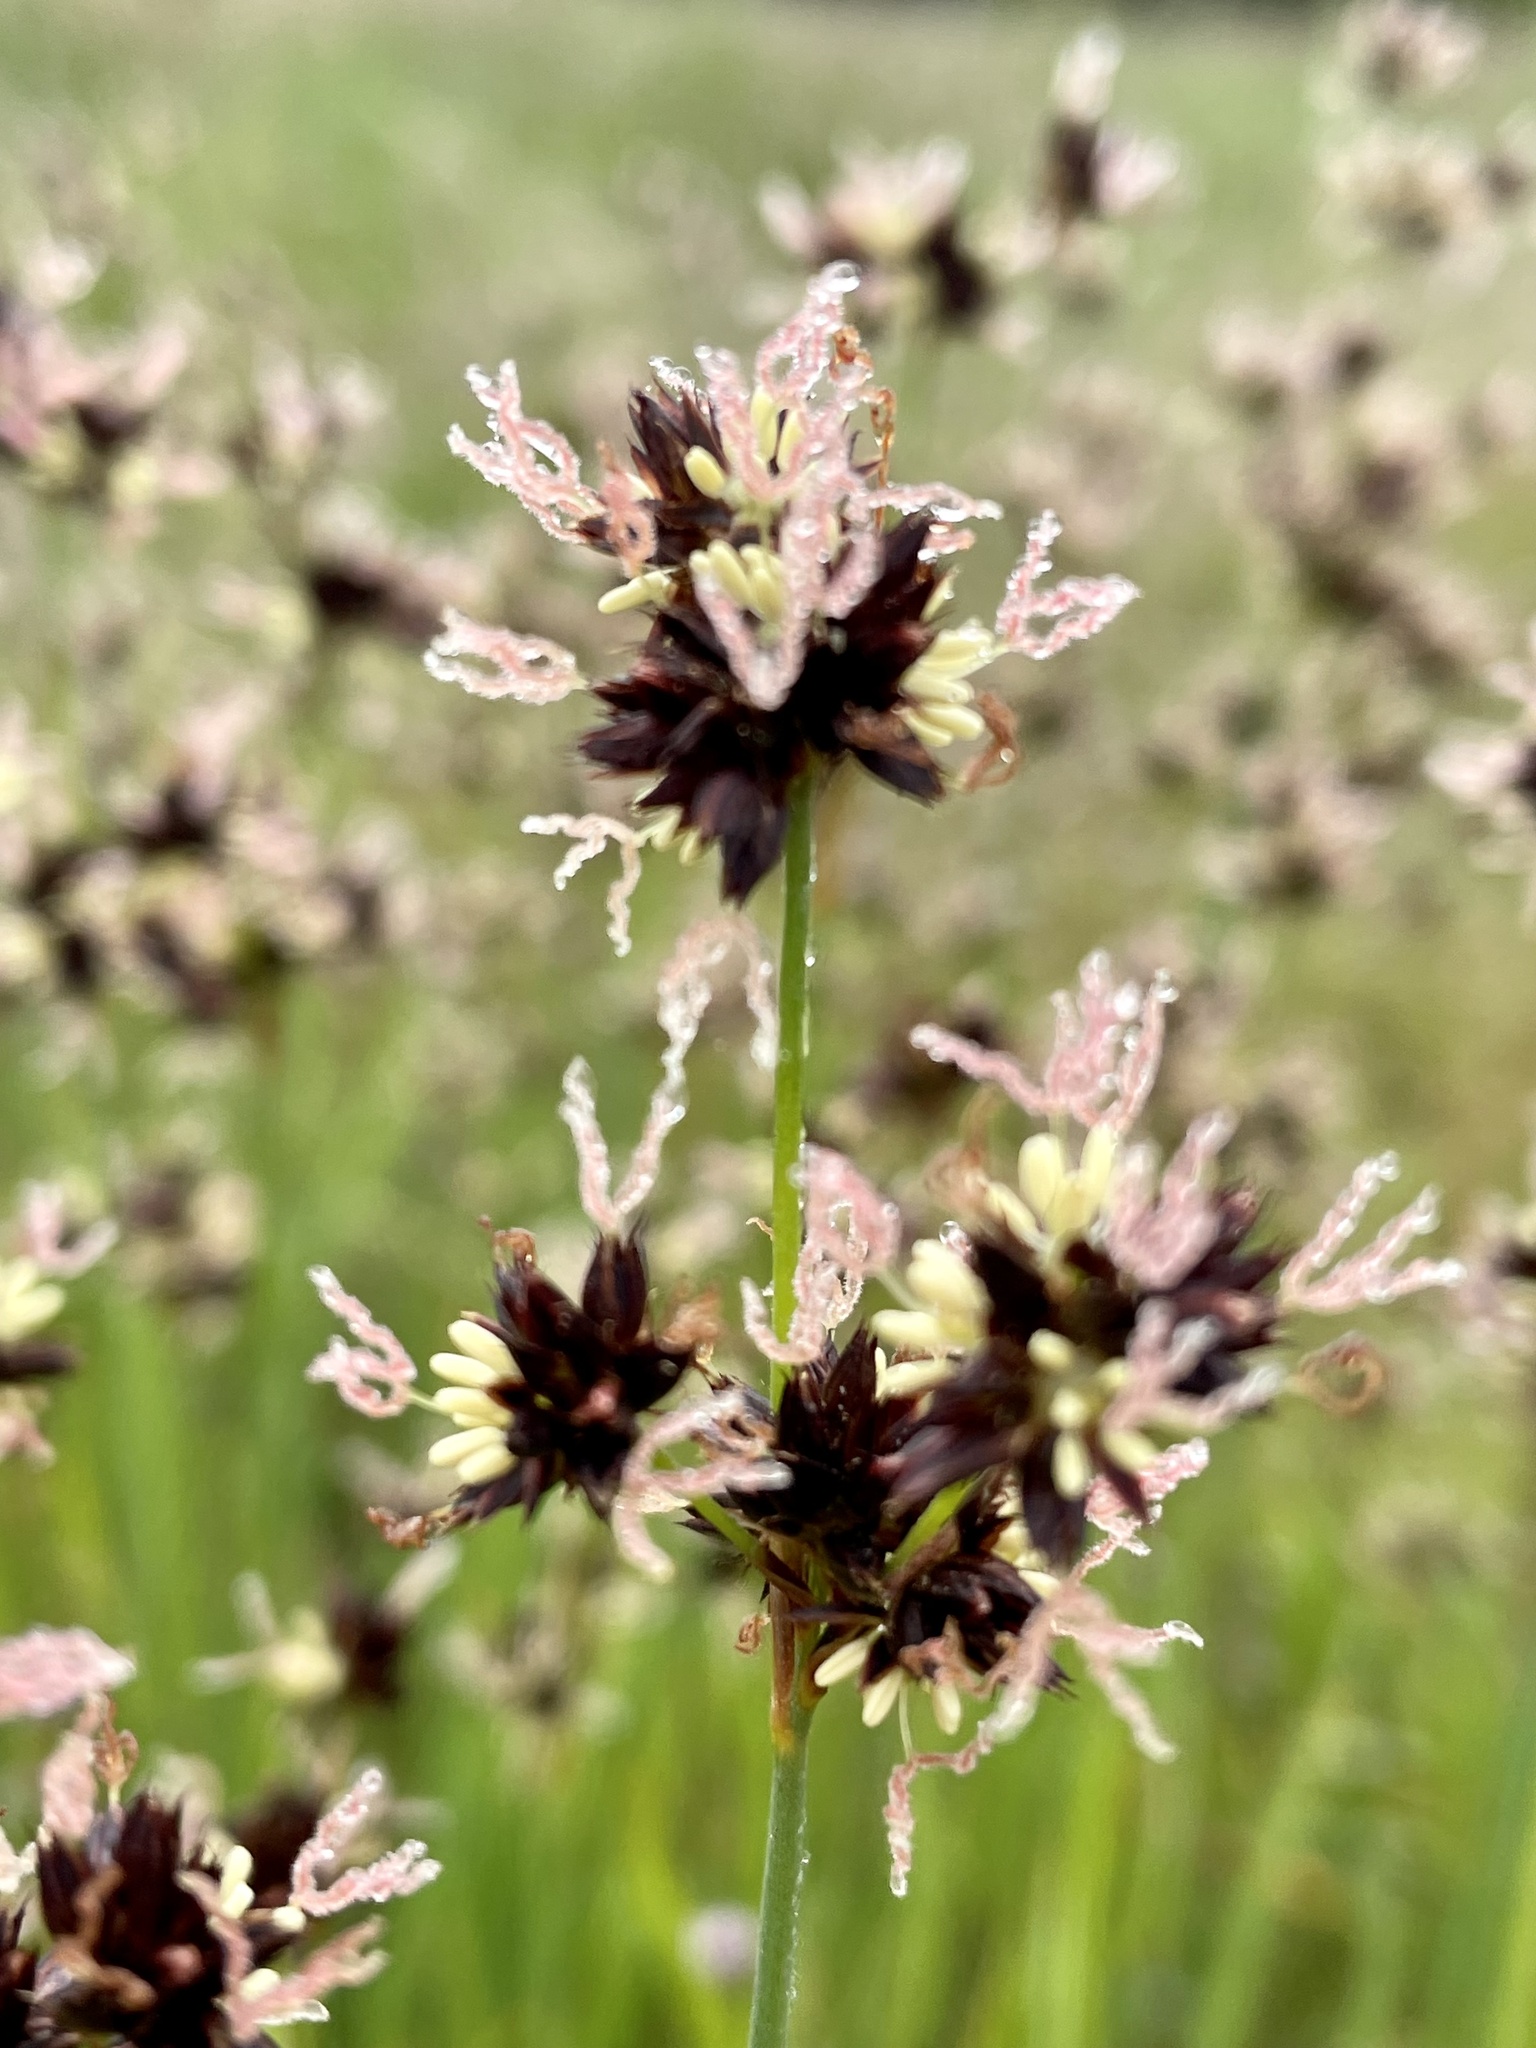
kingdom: Plantae
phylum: Tracheophyta
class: Liliopsida
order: Poales
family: Juncaceae
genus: Juncus
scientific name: Juncus phaeocephalus
